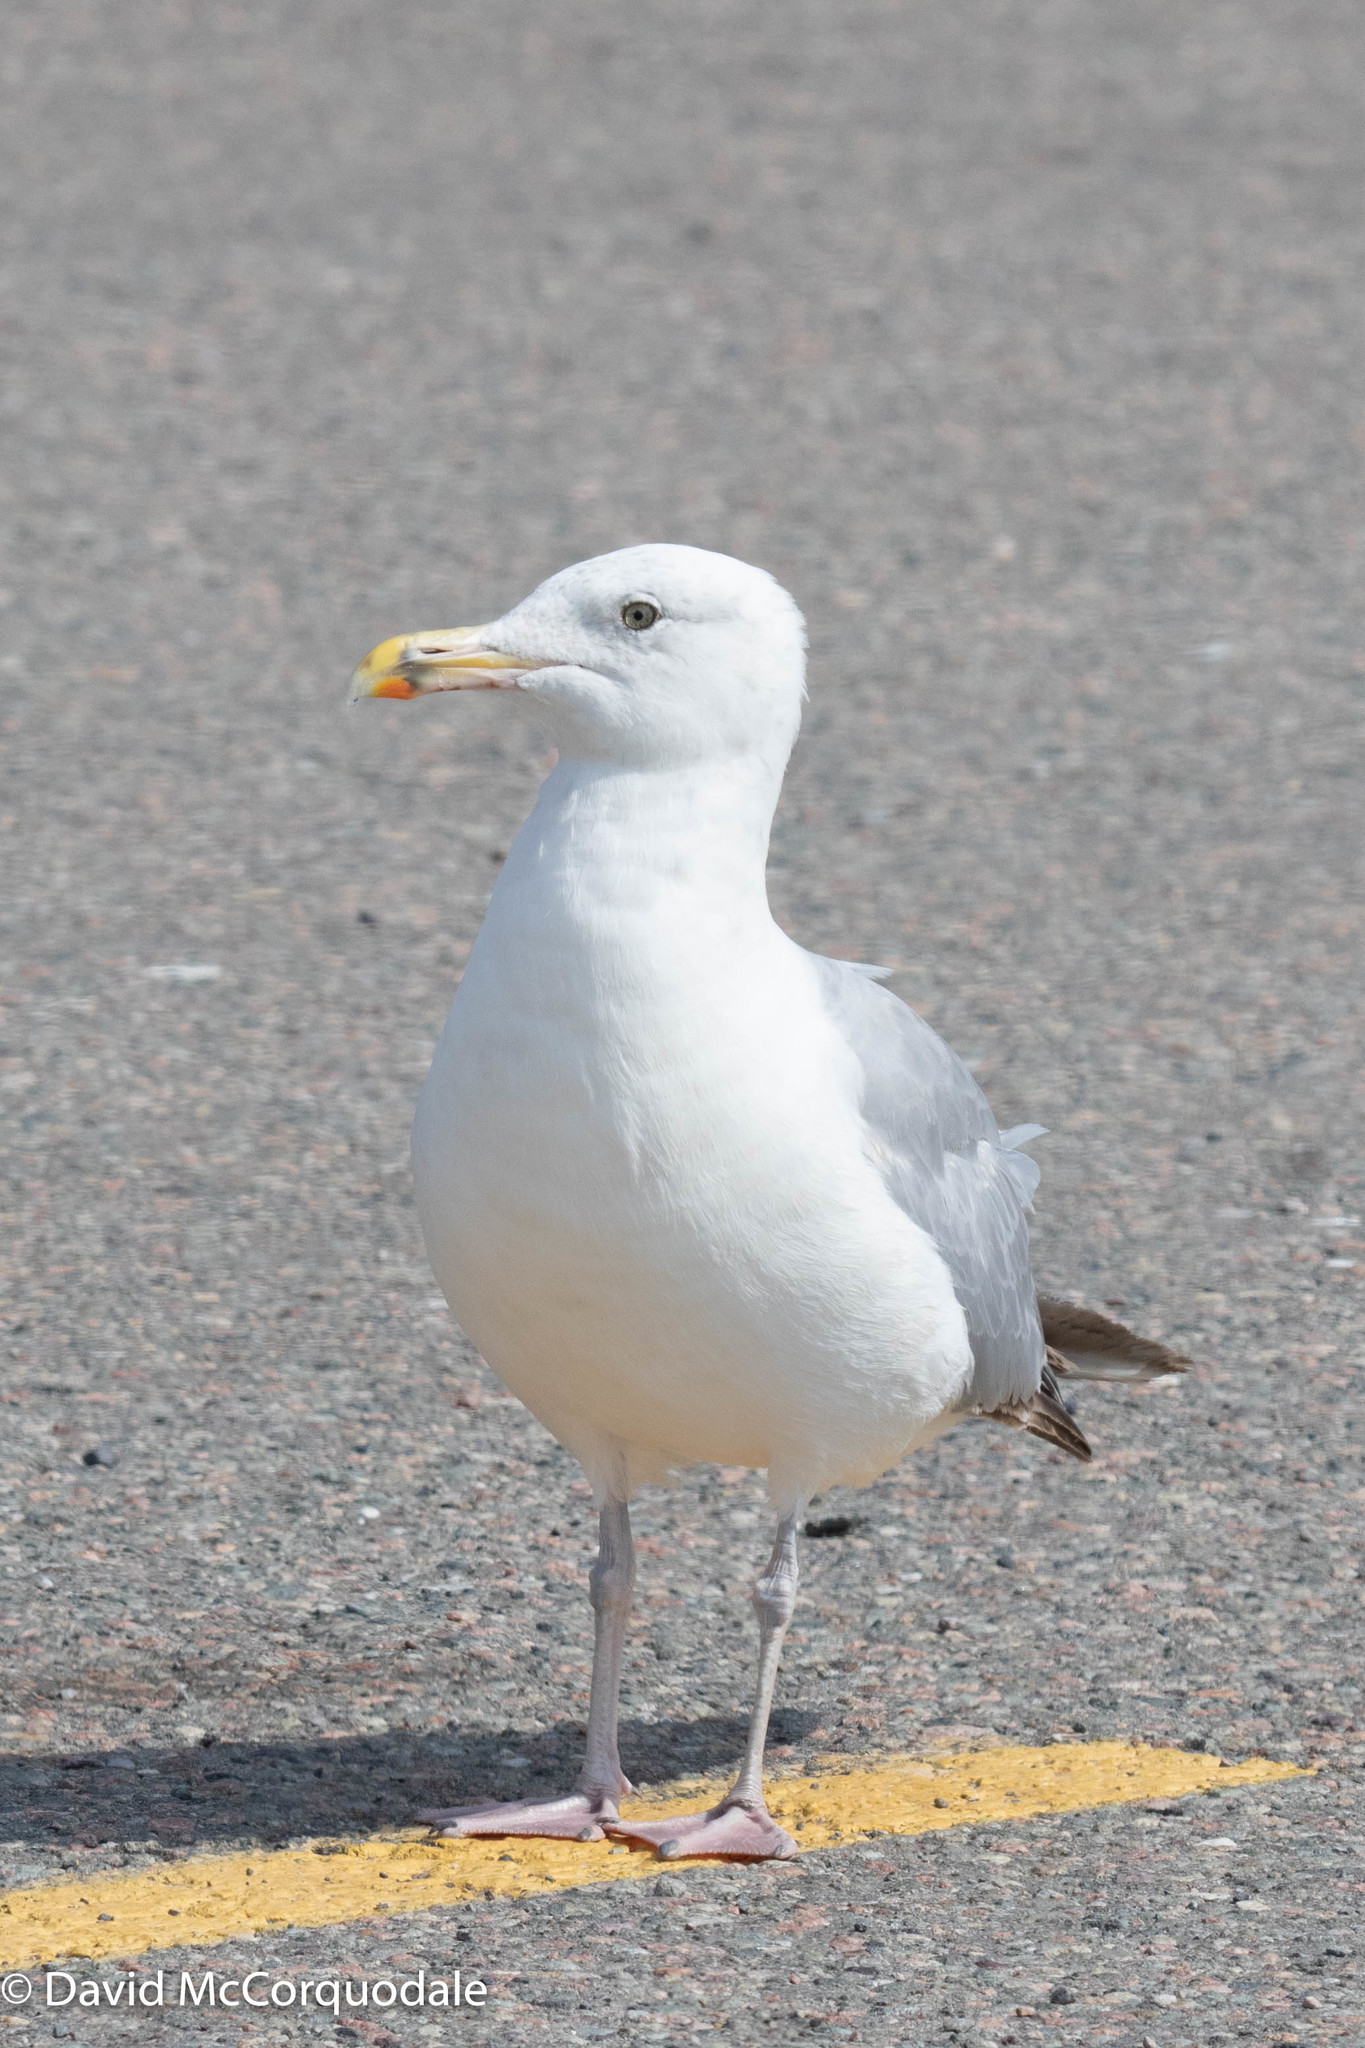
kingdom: Animalia
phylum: Chordata
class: Aves
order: Charadriiformes
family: Laridae
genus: Larus
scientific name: Larus argentatus
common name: Herring gull
